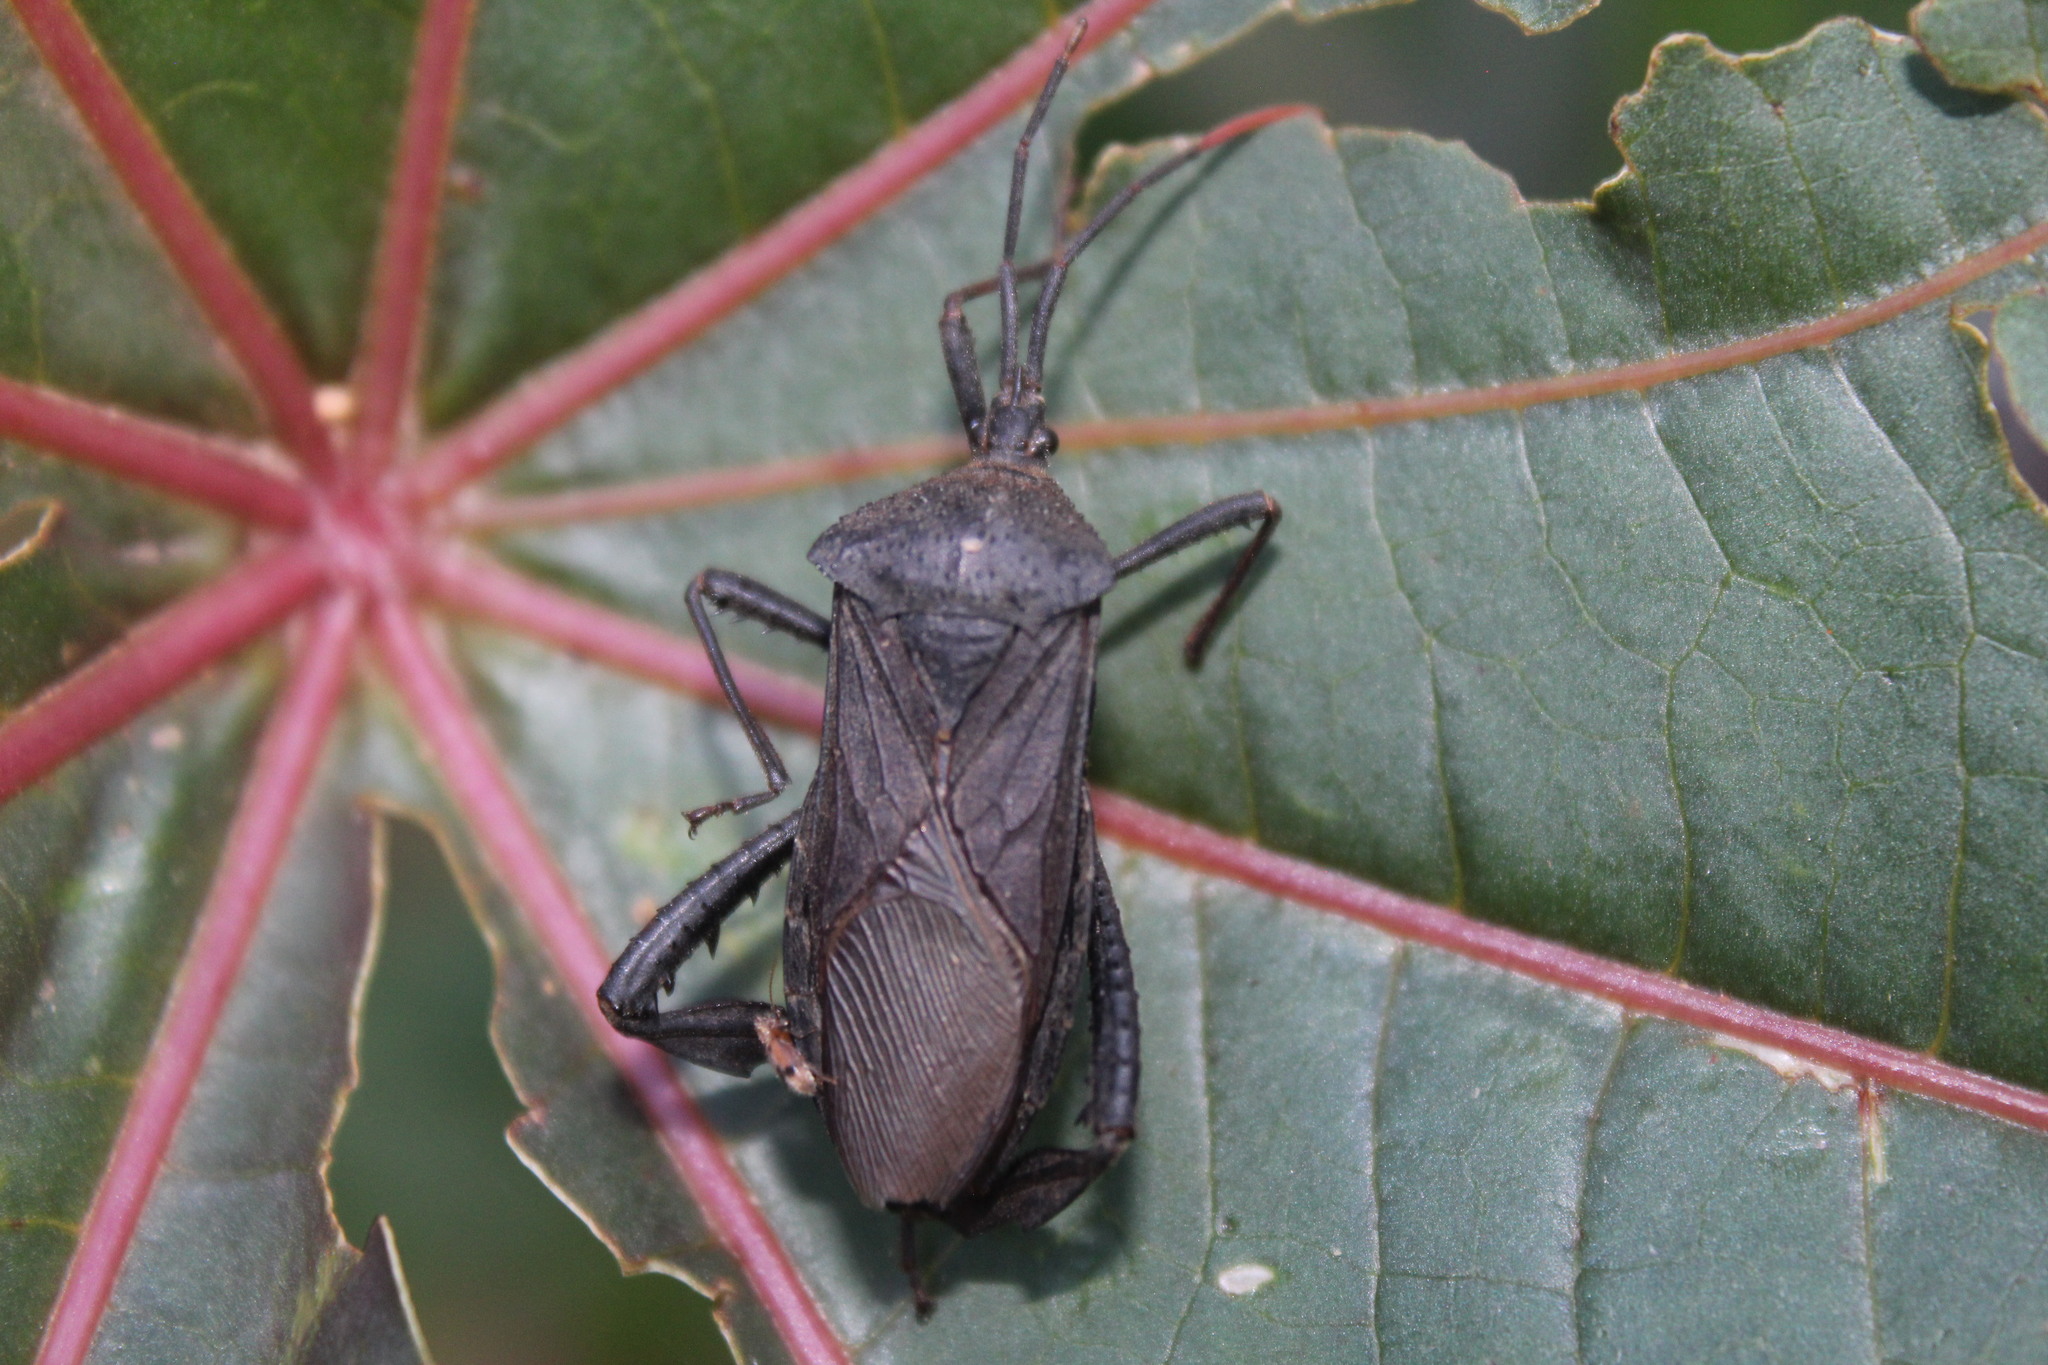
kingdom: Animalia
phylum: Arthropoda
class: Insecta
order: Hemiptera
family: Coreidae
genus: Acanthocephala
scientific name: Acanthocephala femorata
